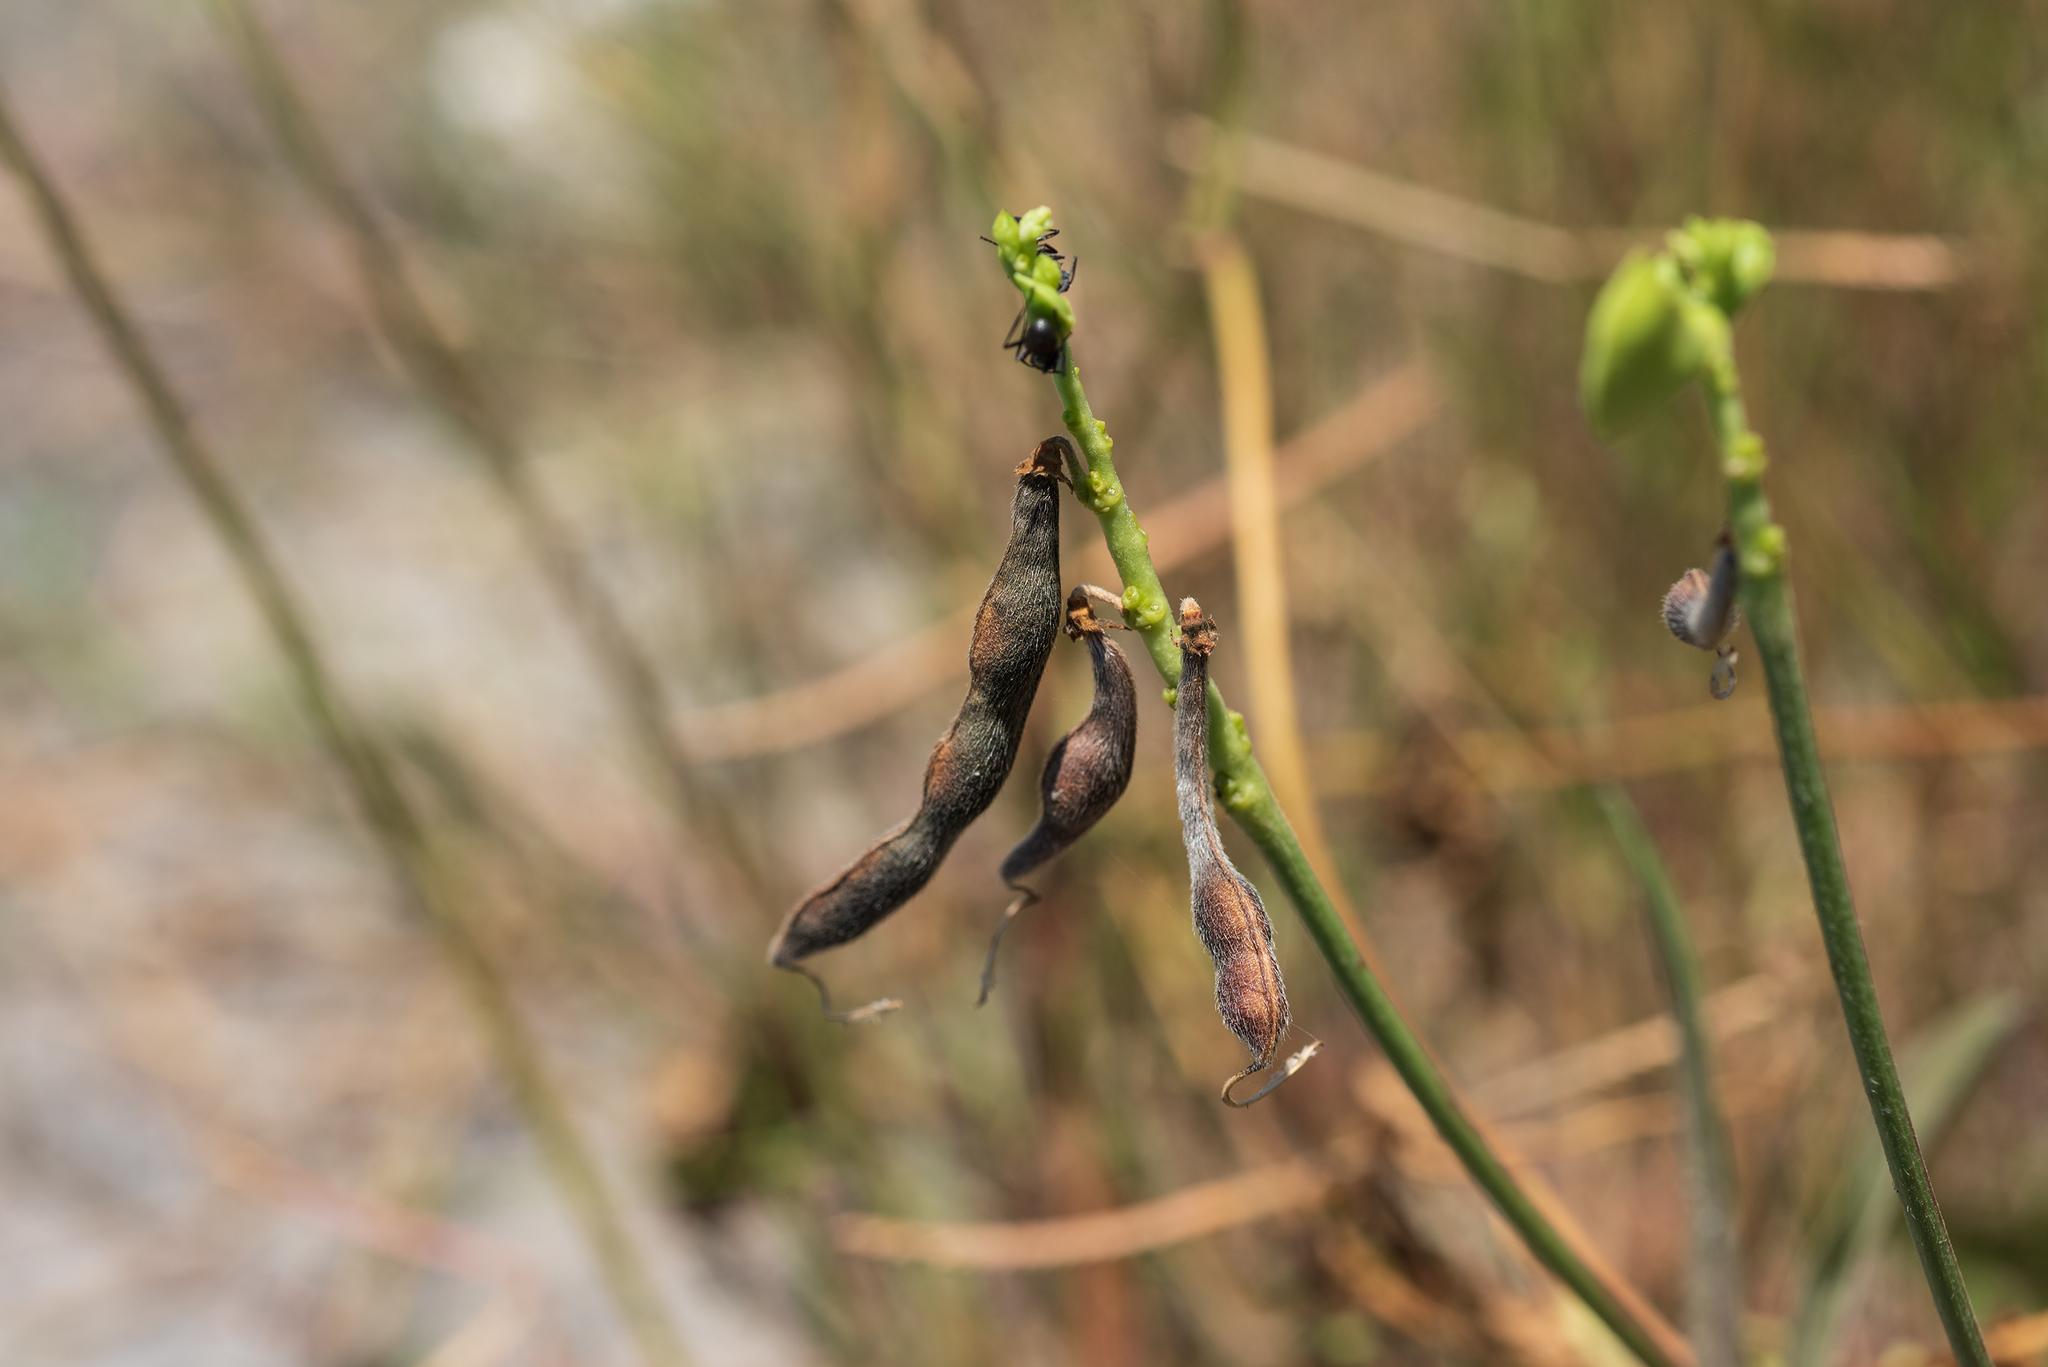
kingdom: Plantae
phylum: Tracheophyta
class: Magnoliopsida
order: Fabales
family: Fabaceae
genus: Vigna
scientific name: Vigna luteola
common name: Hairypod cowpea
